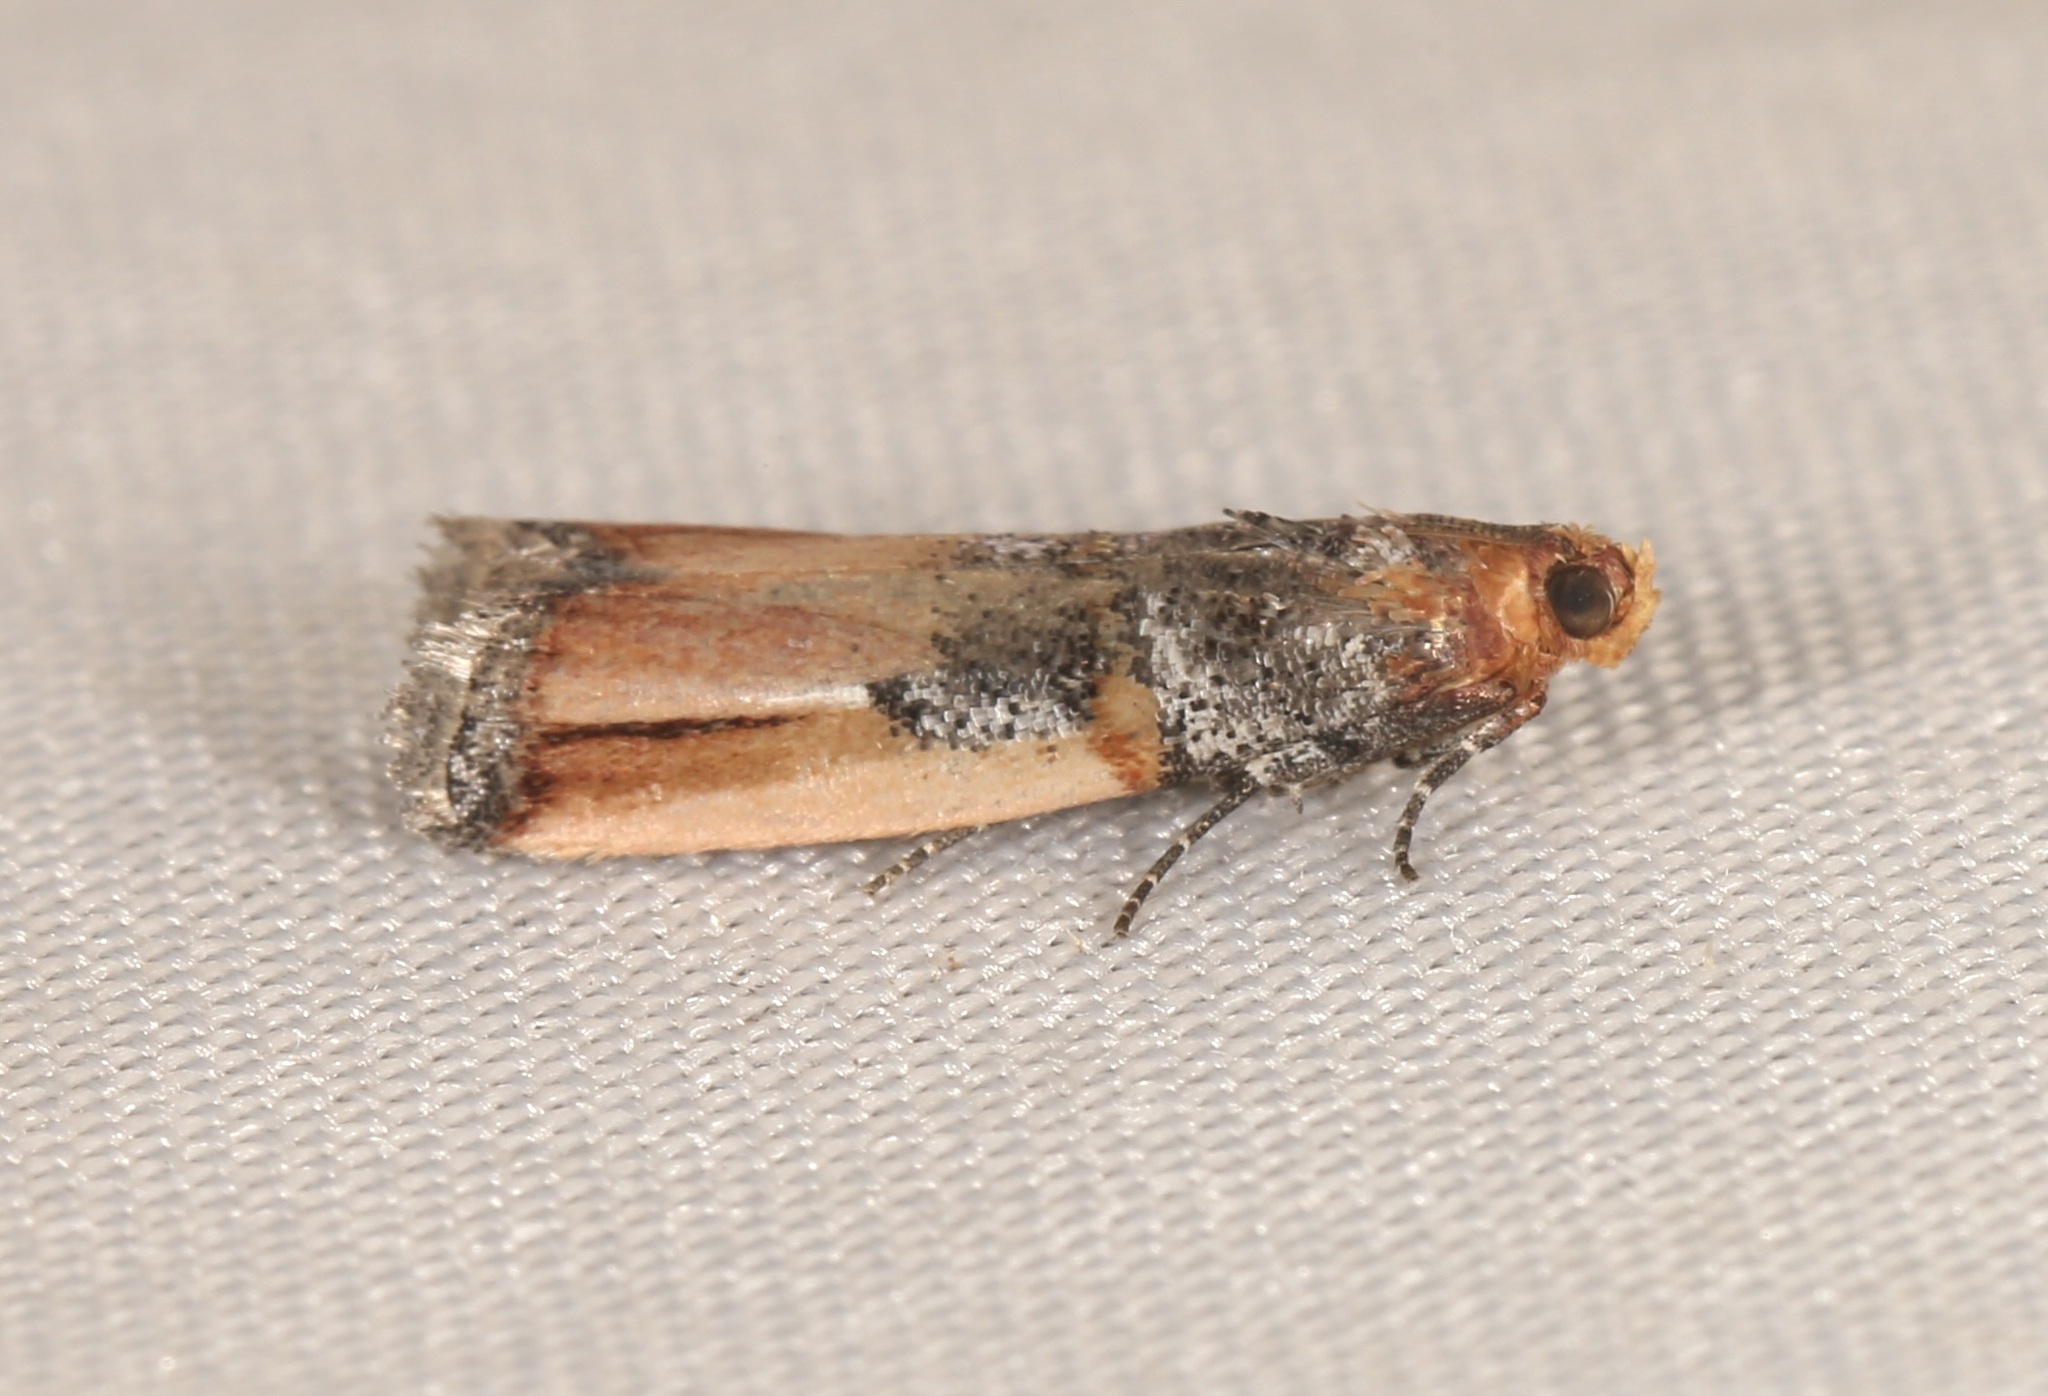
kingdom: Animalia
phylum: Arthropoda
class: Insecta
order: Lepidoptera
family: Pyralidae
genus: Dasypyga
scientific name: Dasypyga alternosquamella
